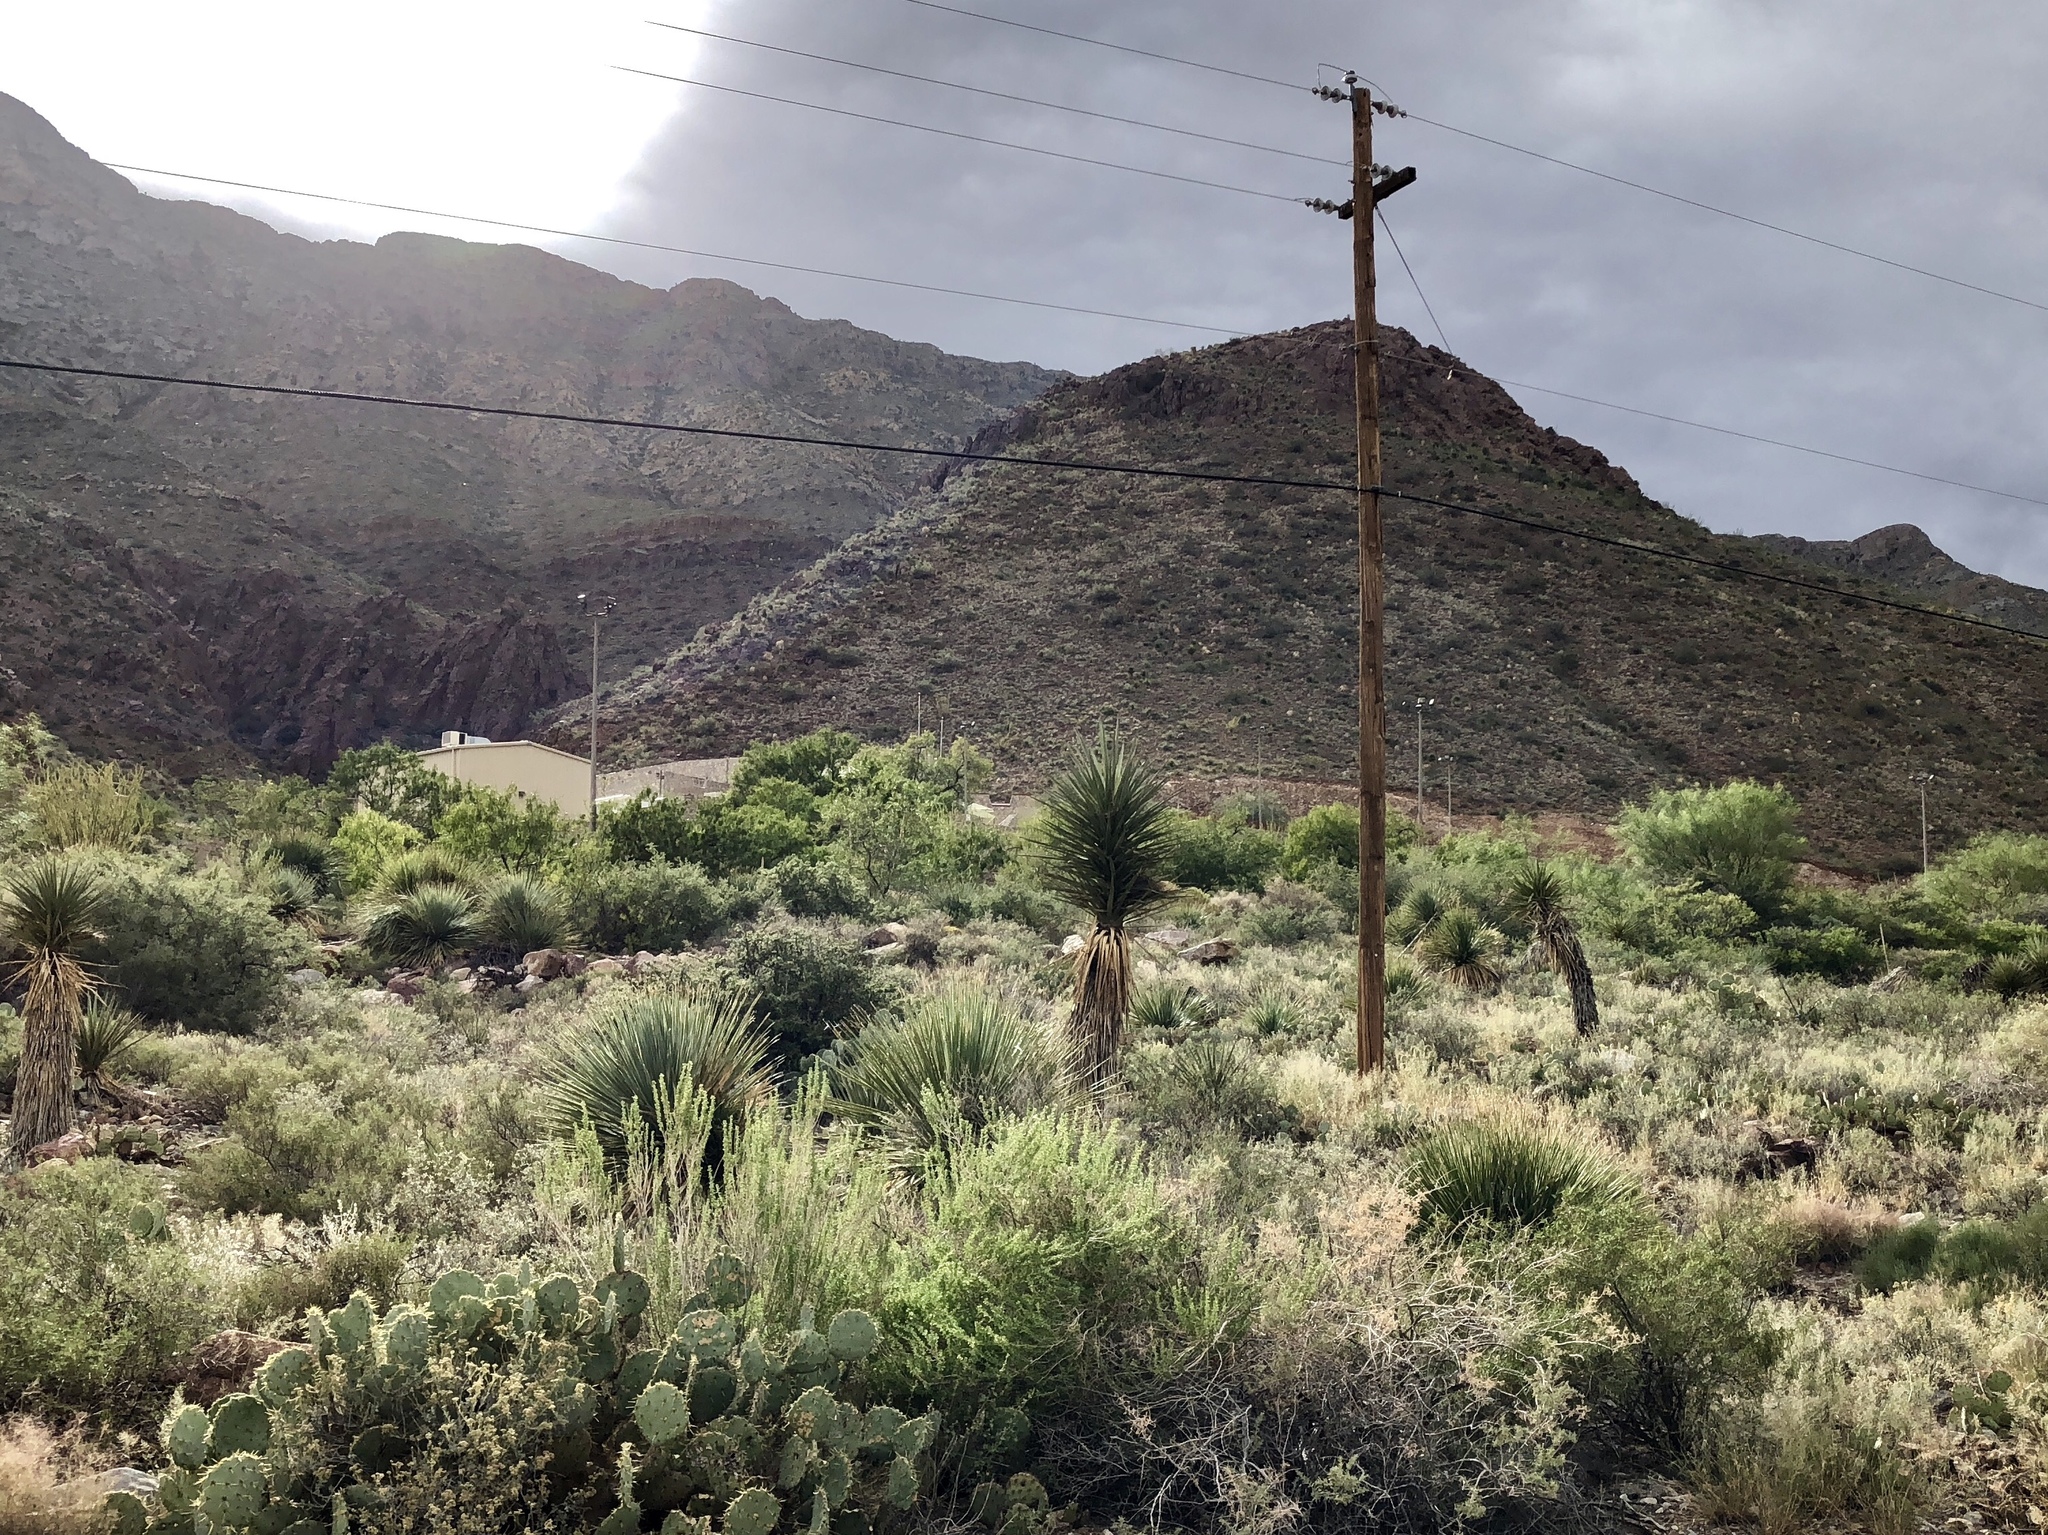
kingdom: Plantae
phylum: Tracheophyta
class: Liliopsida
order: Asparagales
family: Asparagaceae
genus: Yucca
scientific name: Yucca treculiana
